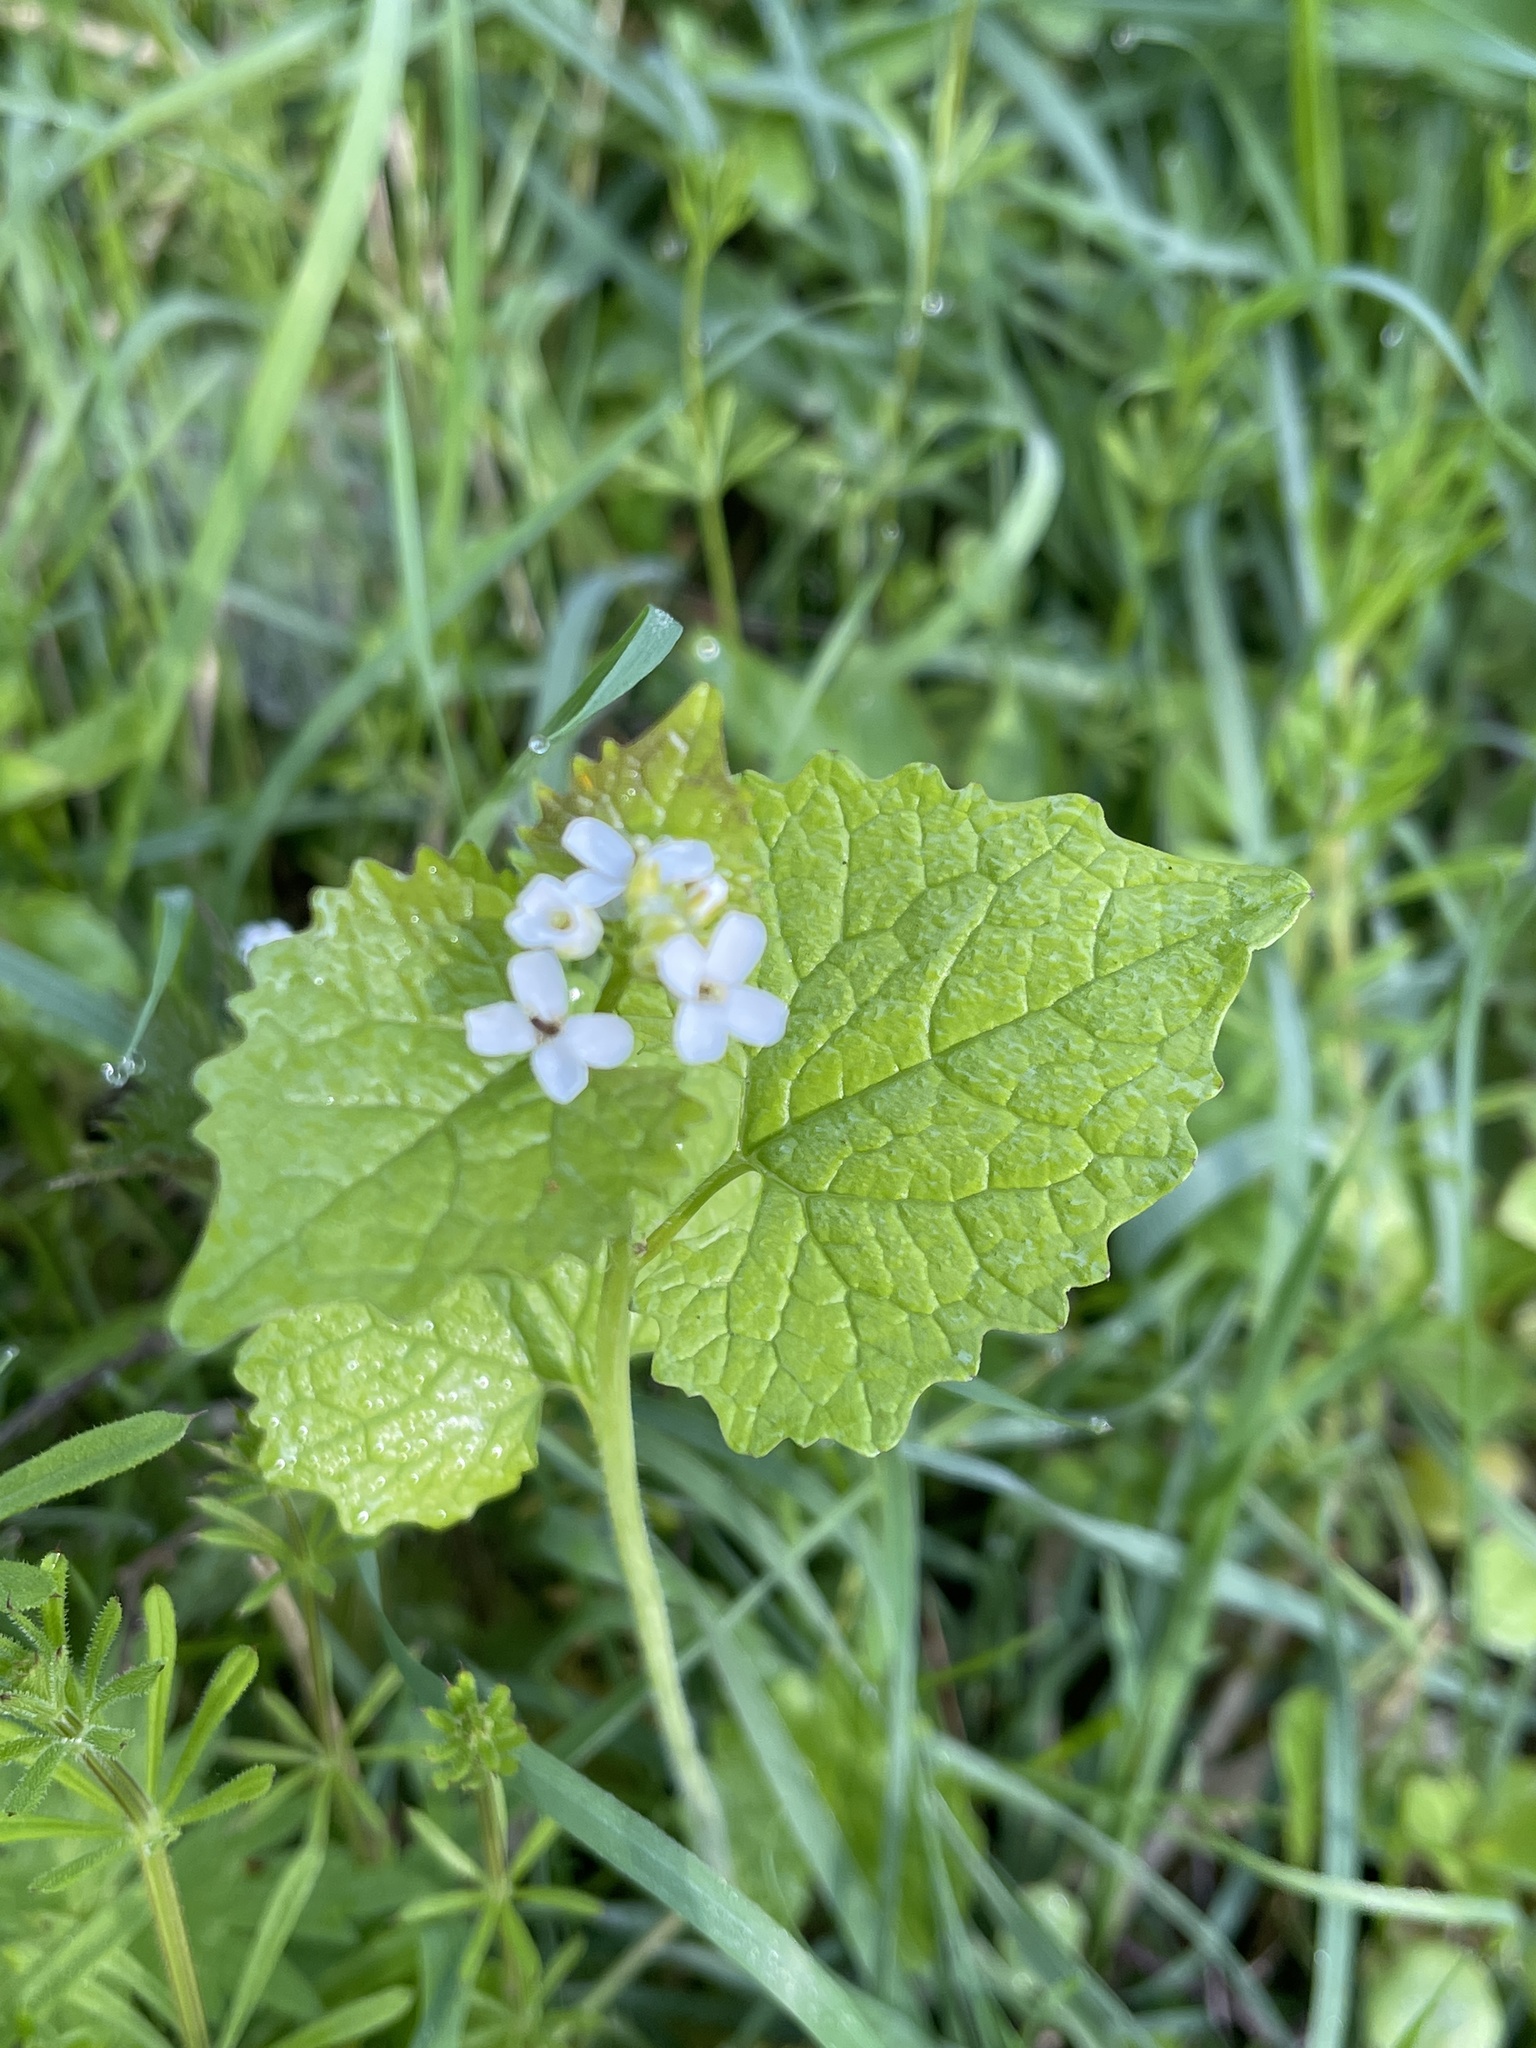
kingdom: Plantae
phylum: Tracheophyta
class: Magnoliopsida
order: Brassicales
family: Brassicaceae
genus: Alliaria
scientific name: Alliaria petiolata
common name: Garlic mustard
